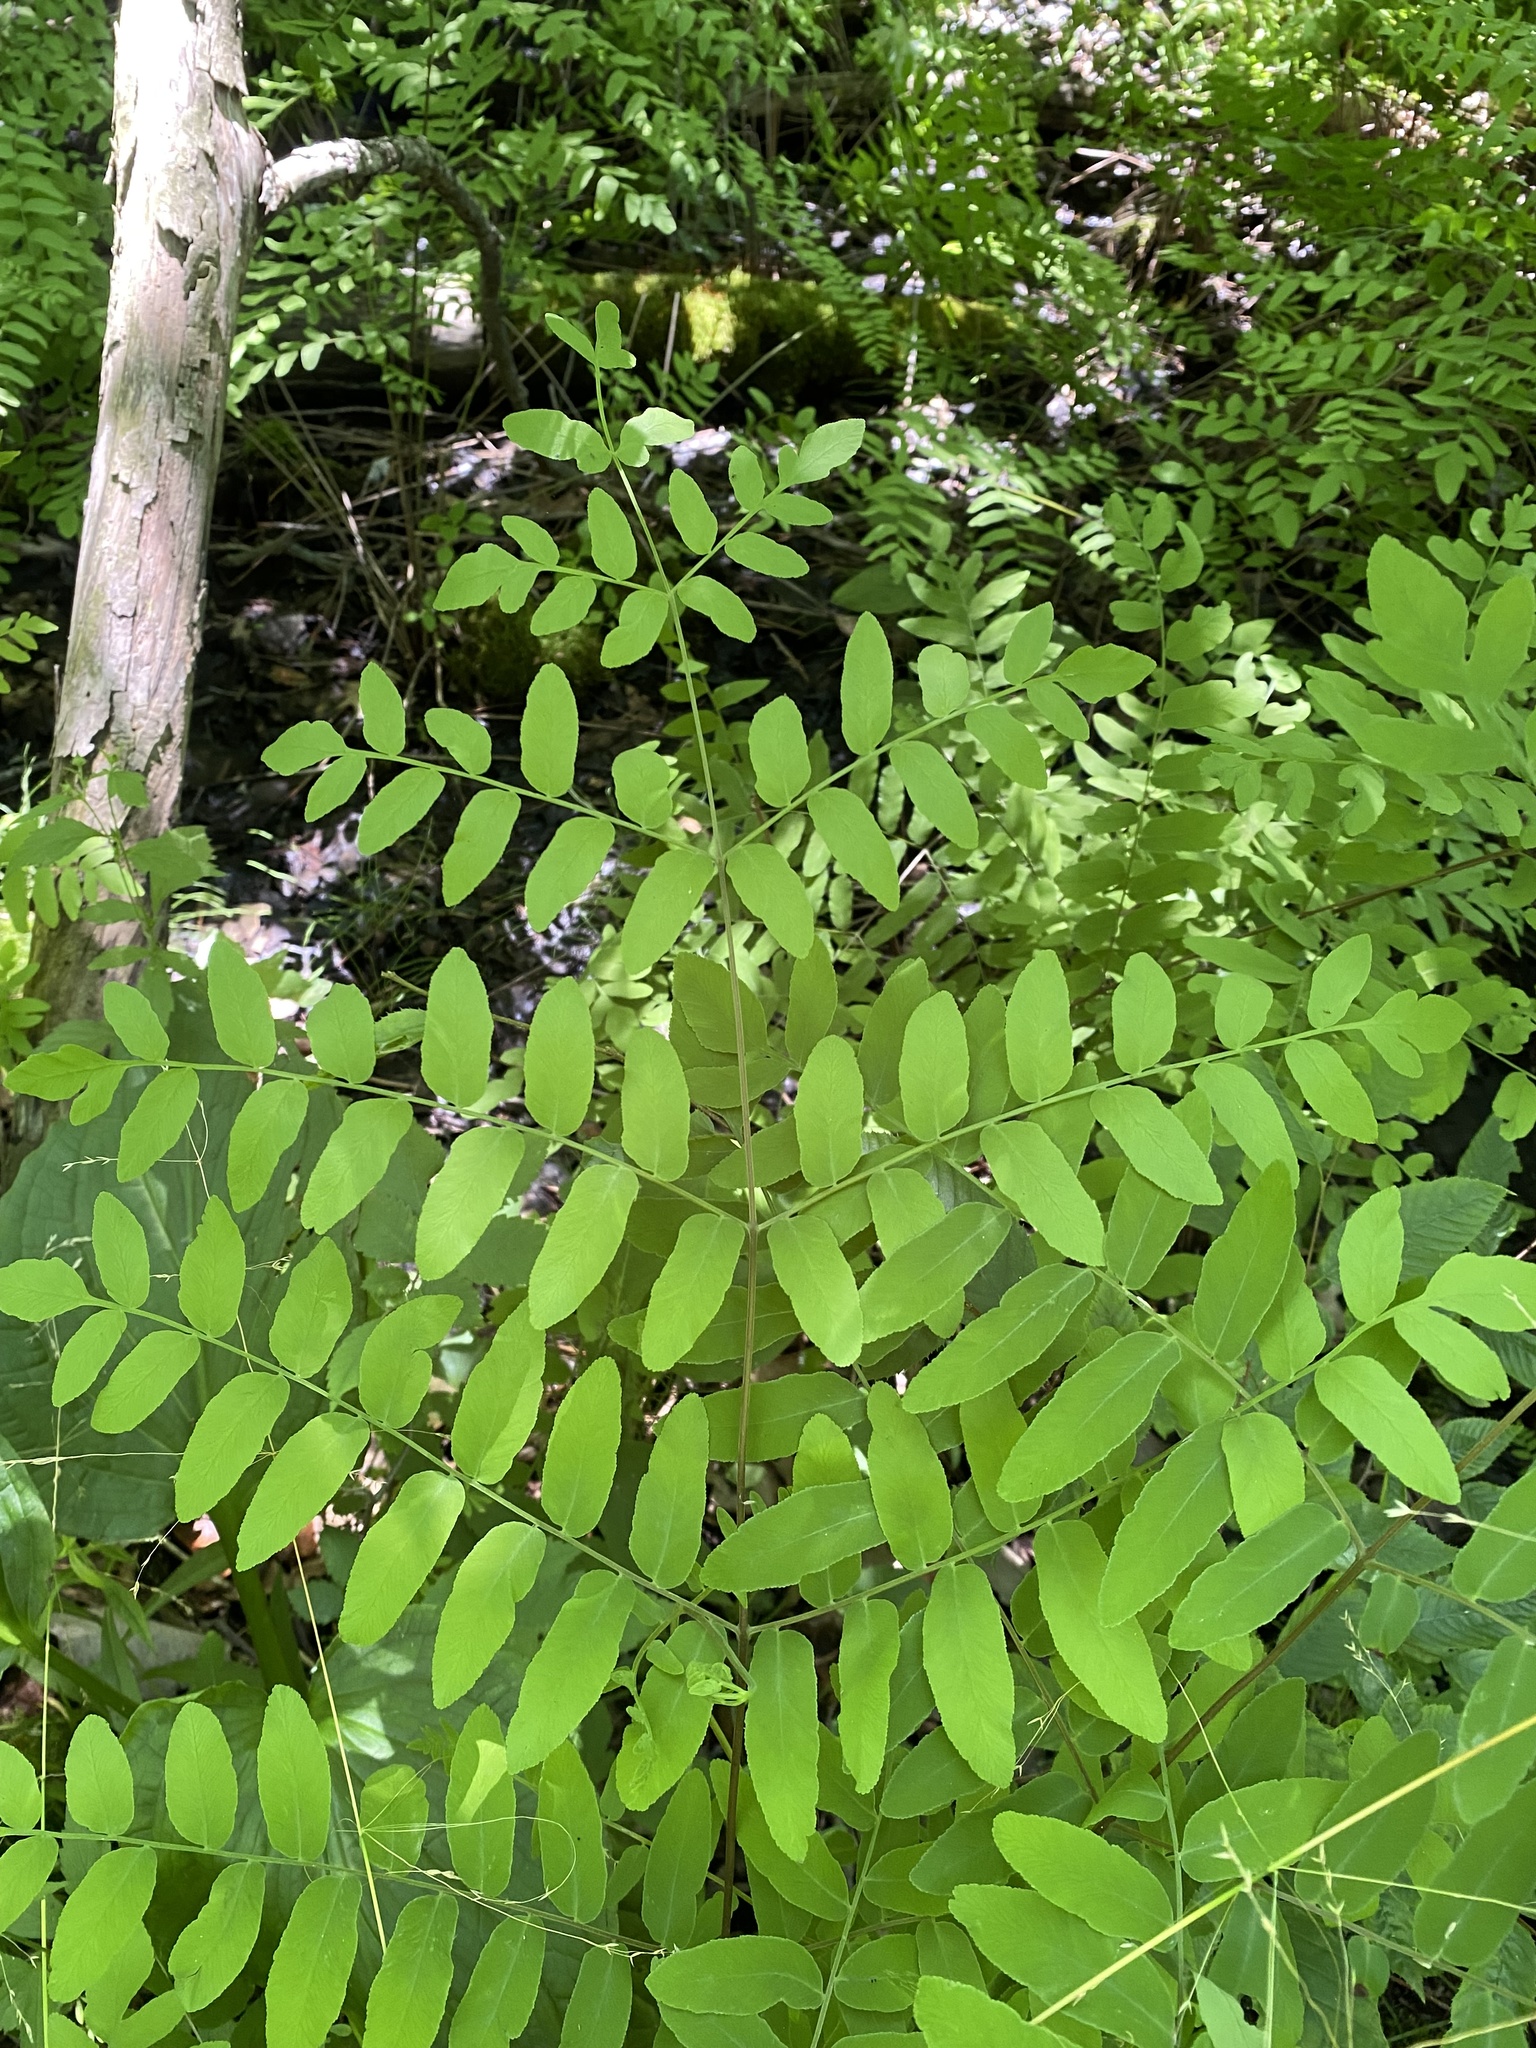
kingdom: Plantae
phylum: Tracheophyta
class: Polypodiopsida
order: Osmundales
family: Osmundaceae
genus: Osmunda
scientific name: Osmunda spectabilis
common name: American royal fern
